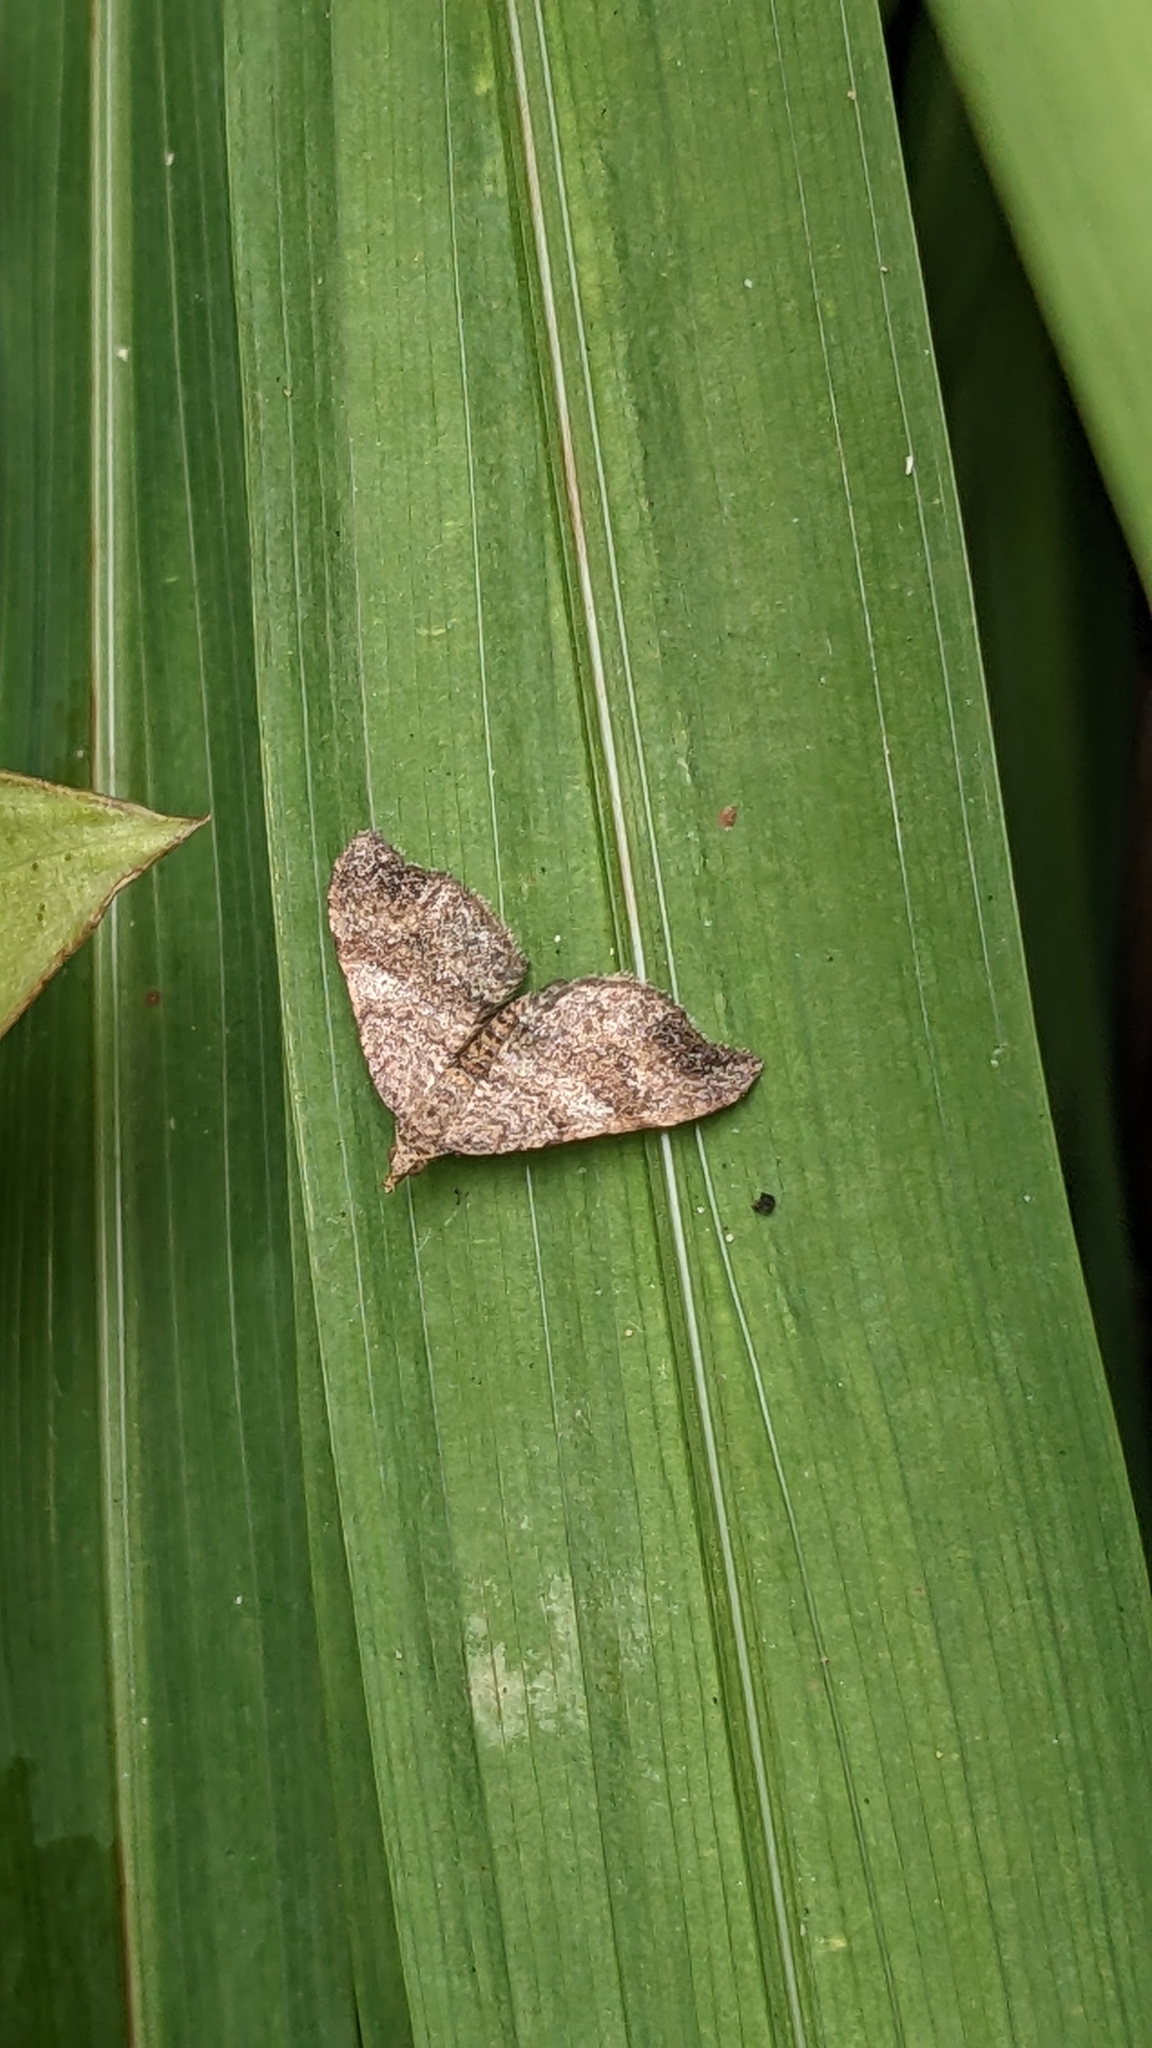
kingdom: Animalia
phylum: Arthropoda
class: Insecta
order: Lepidoptera
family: Geometridae
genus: Homodotis
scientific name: Homodotis megaspilata
